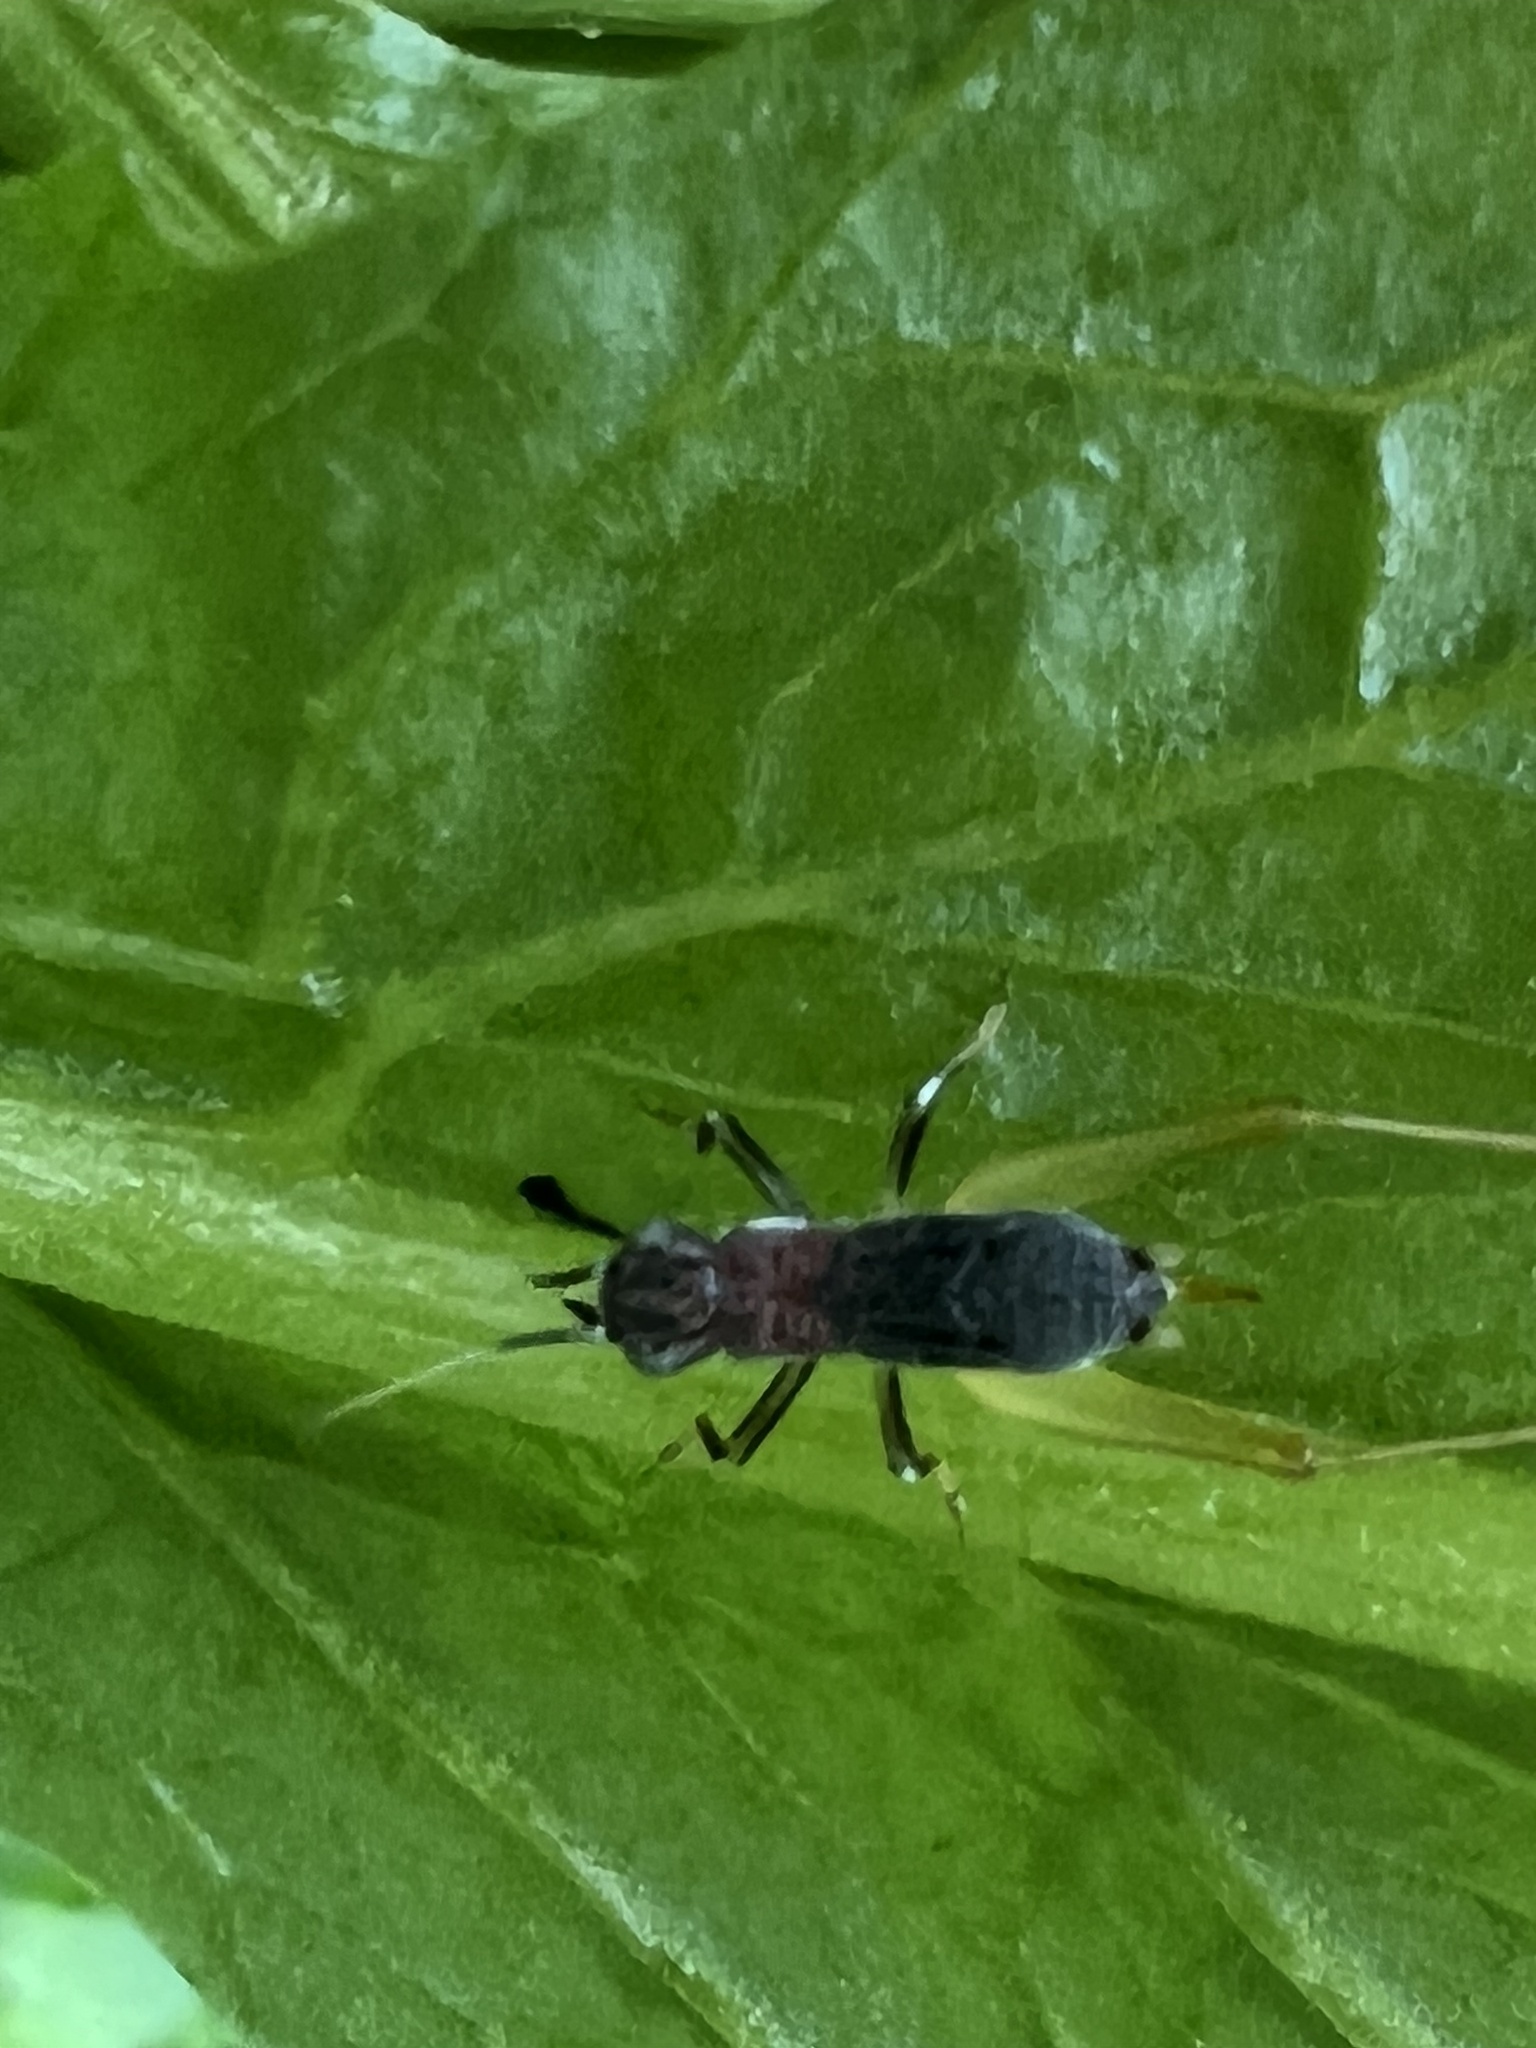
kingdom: Animalia
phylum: Arthropoda
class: Insecta
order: Orthoptera
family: Trigonidiidae
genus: Phyllopalpus
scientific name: Phyllopalpus pulchellus
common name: Handsome trig
